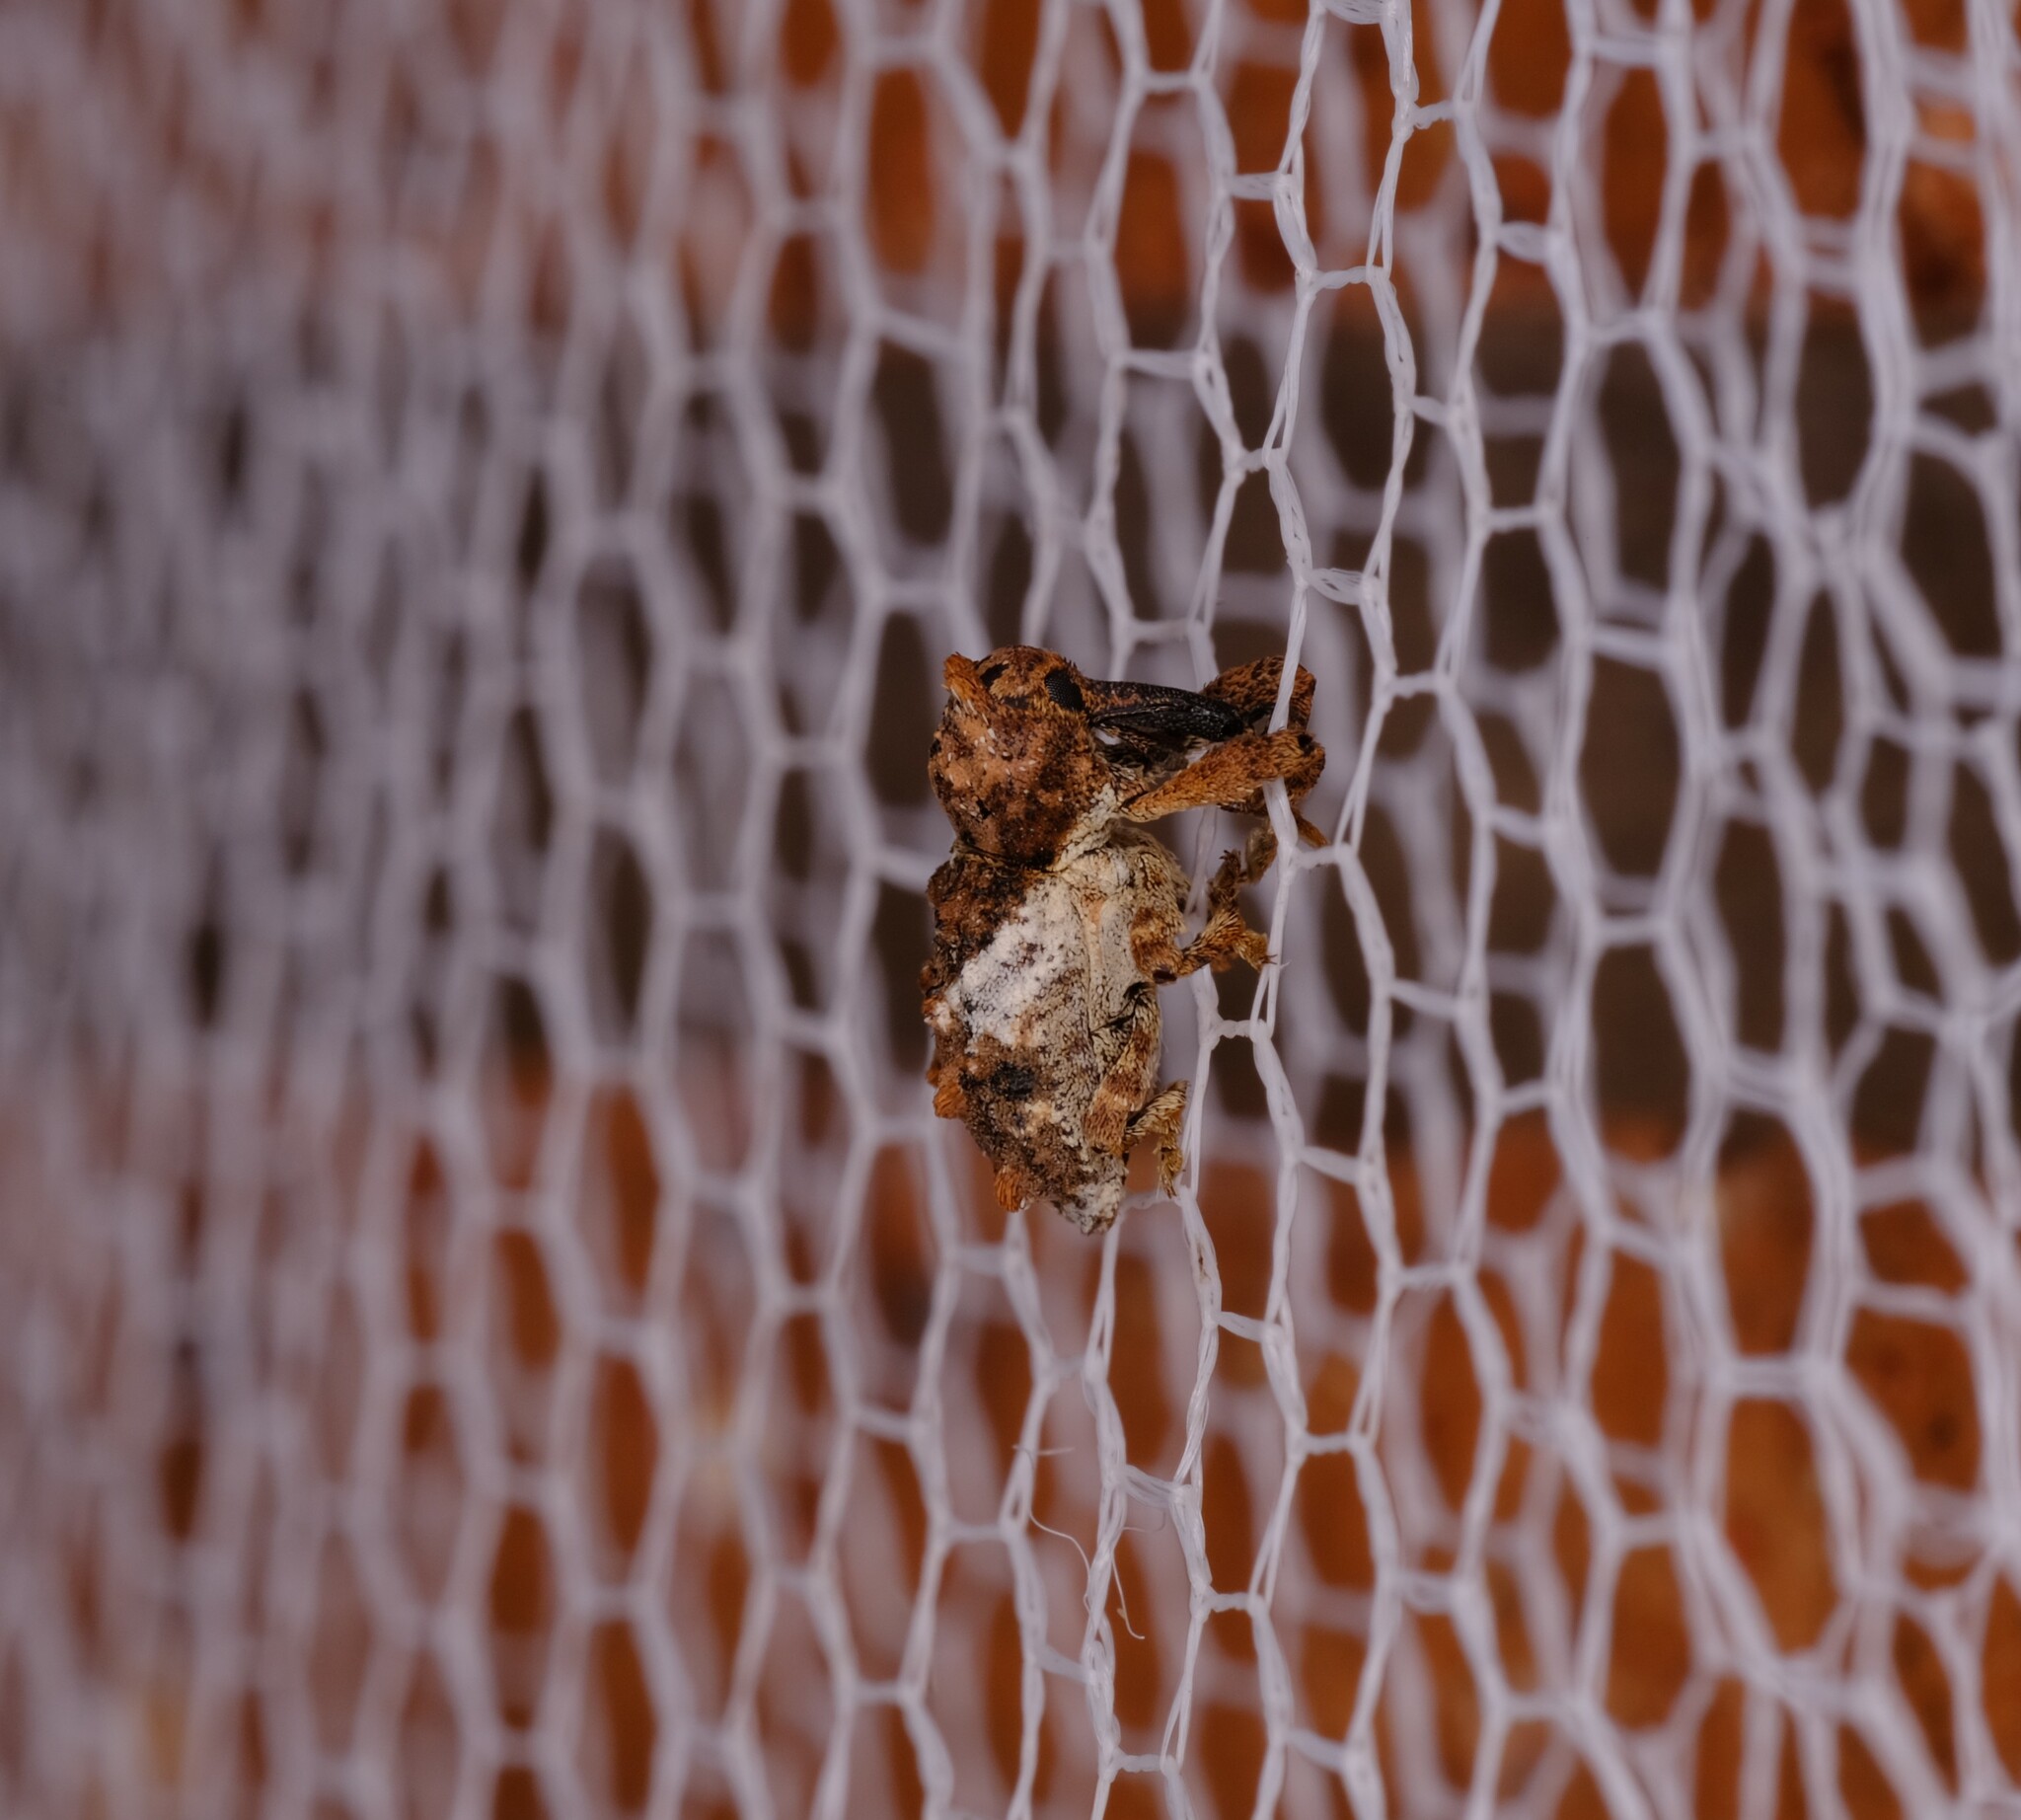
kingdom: Animalia
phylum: Arthropoda
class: Insecta
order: Coleoptera
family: Curculionidae
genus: Orthorhinus
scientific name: Orthorhinus klugii
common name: Vine weevil
